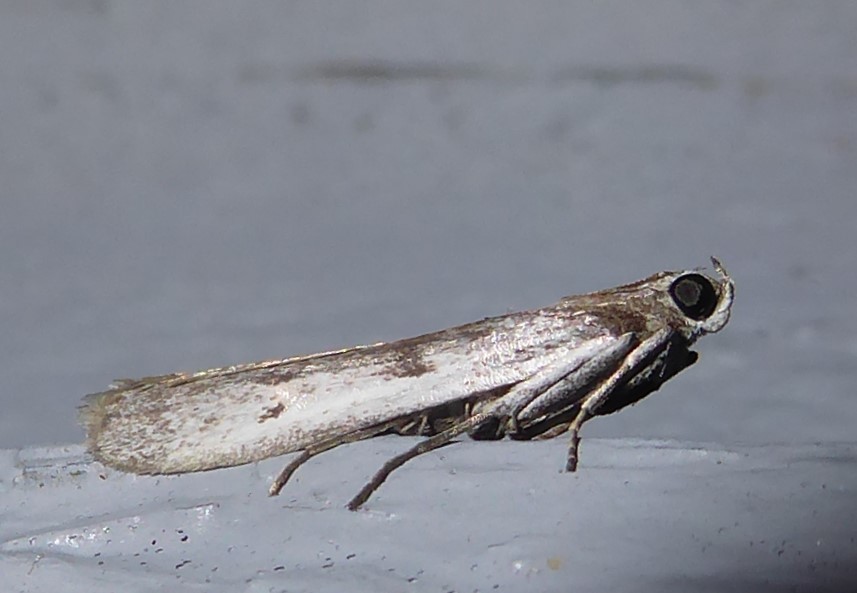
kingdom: Animalia
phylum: Arthropoda
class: Insecta
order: Lepidoptera
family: Pyralidae
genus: Patagoniodes
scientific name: Patagoniodes farinaria
